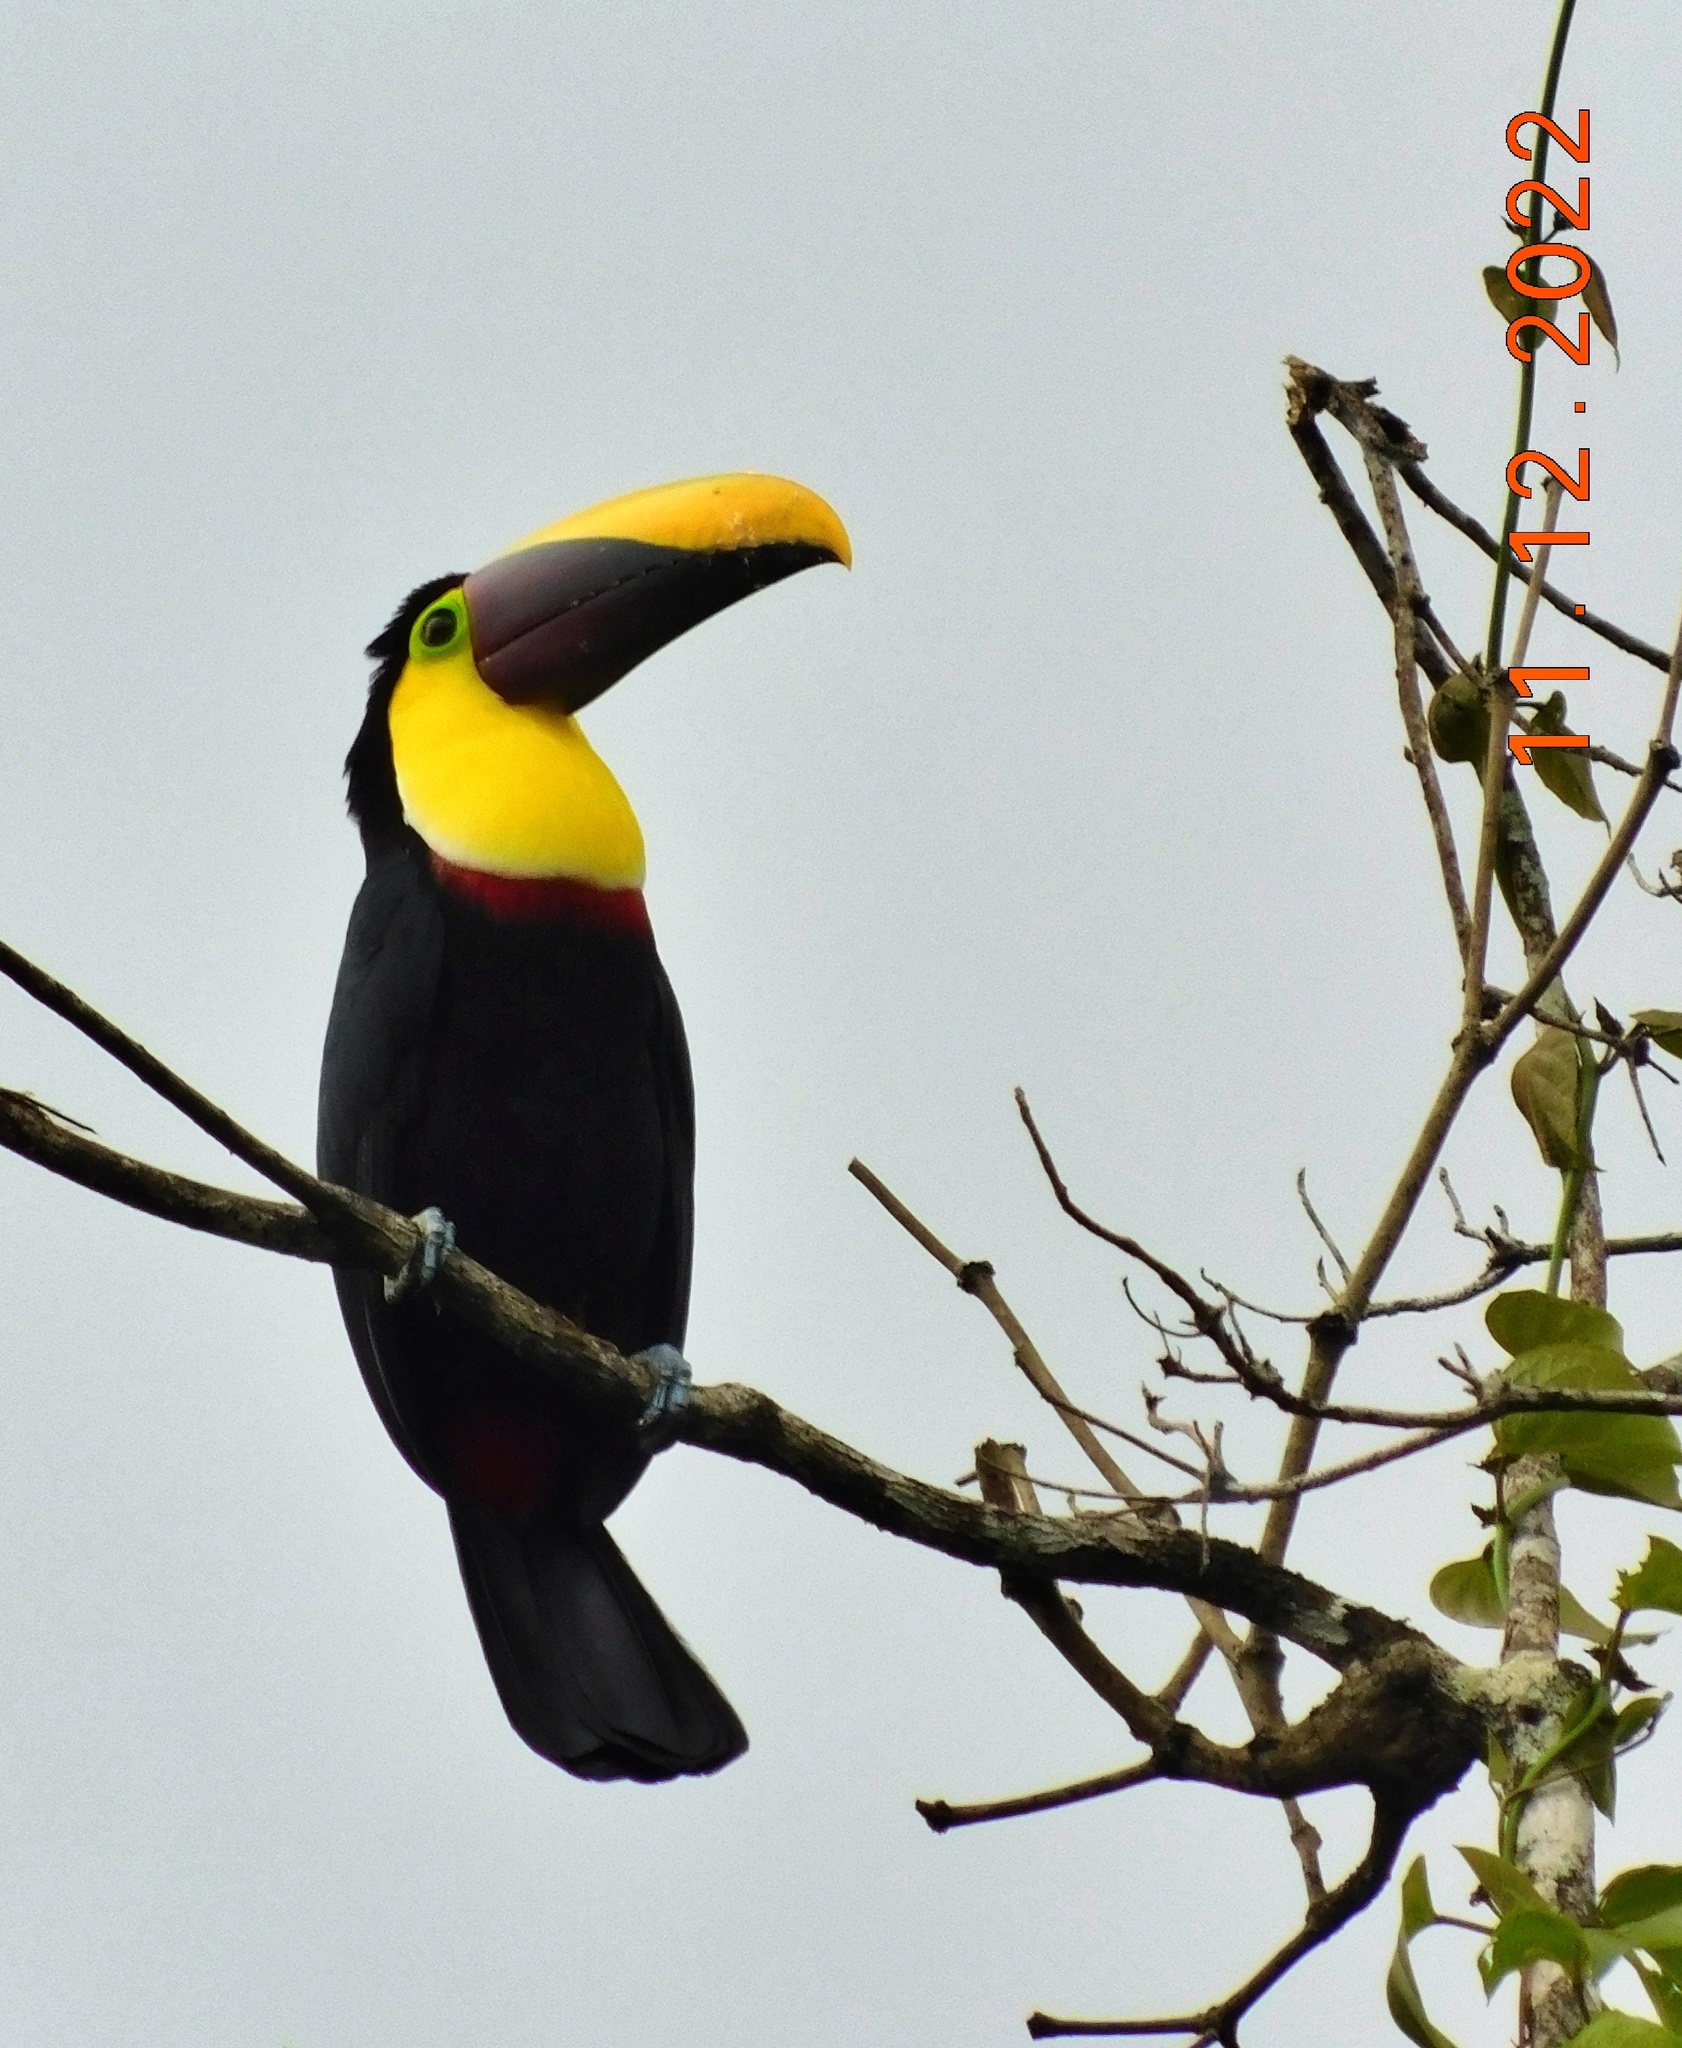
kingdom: Animalia
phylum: Chordata
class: Aves
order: Piciformes
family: Ramphastidae
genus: Ramphastos
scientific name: Ramphastos ambiguus
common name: Yellow-throated toucan
